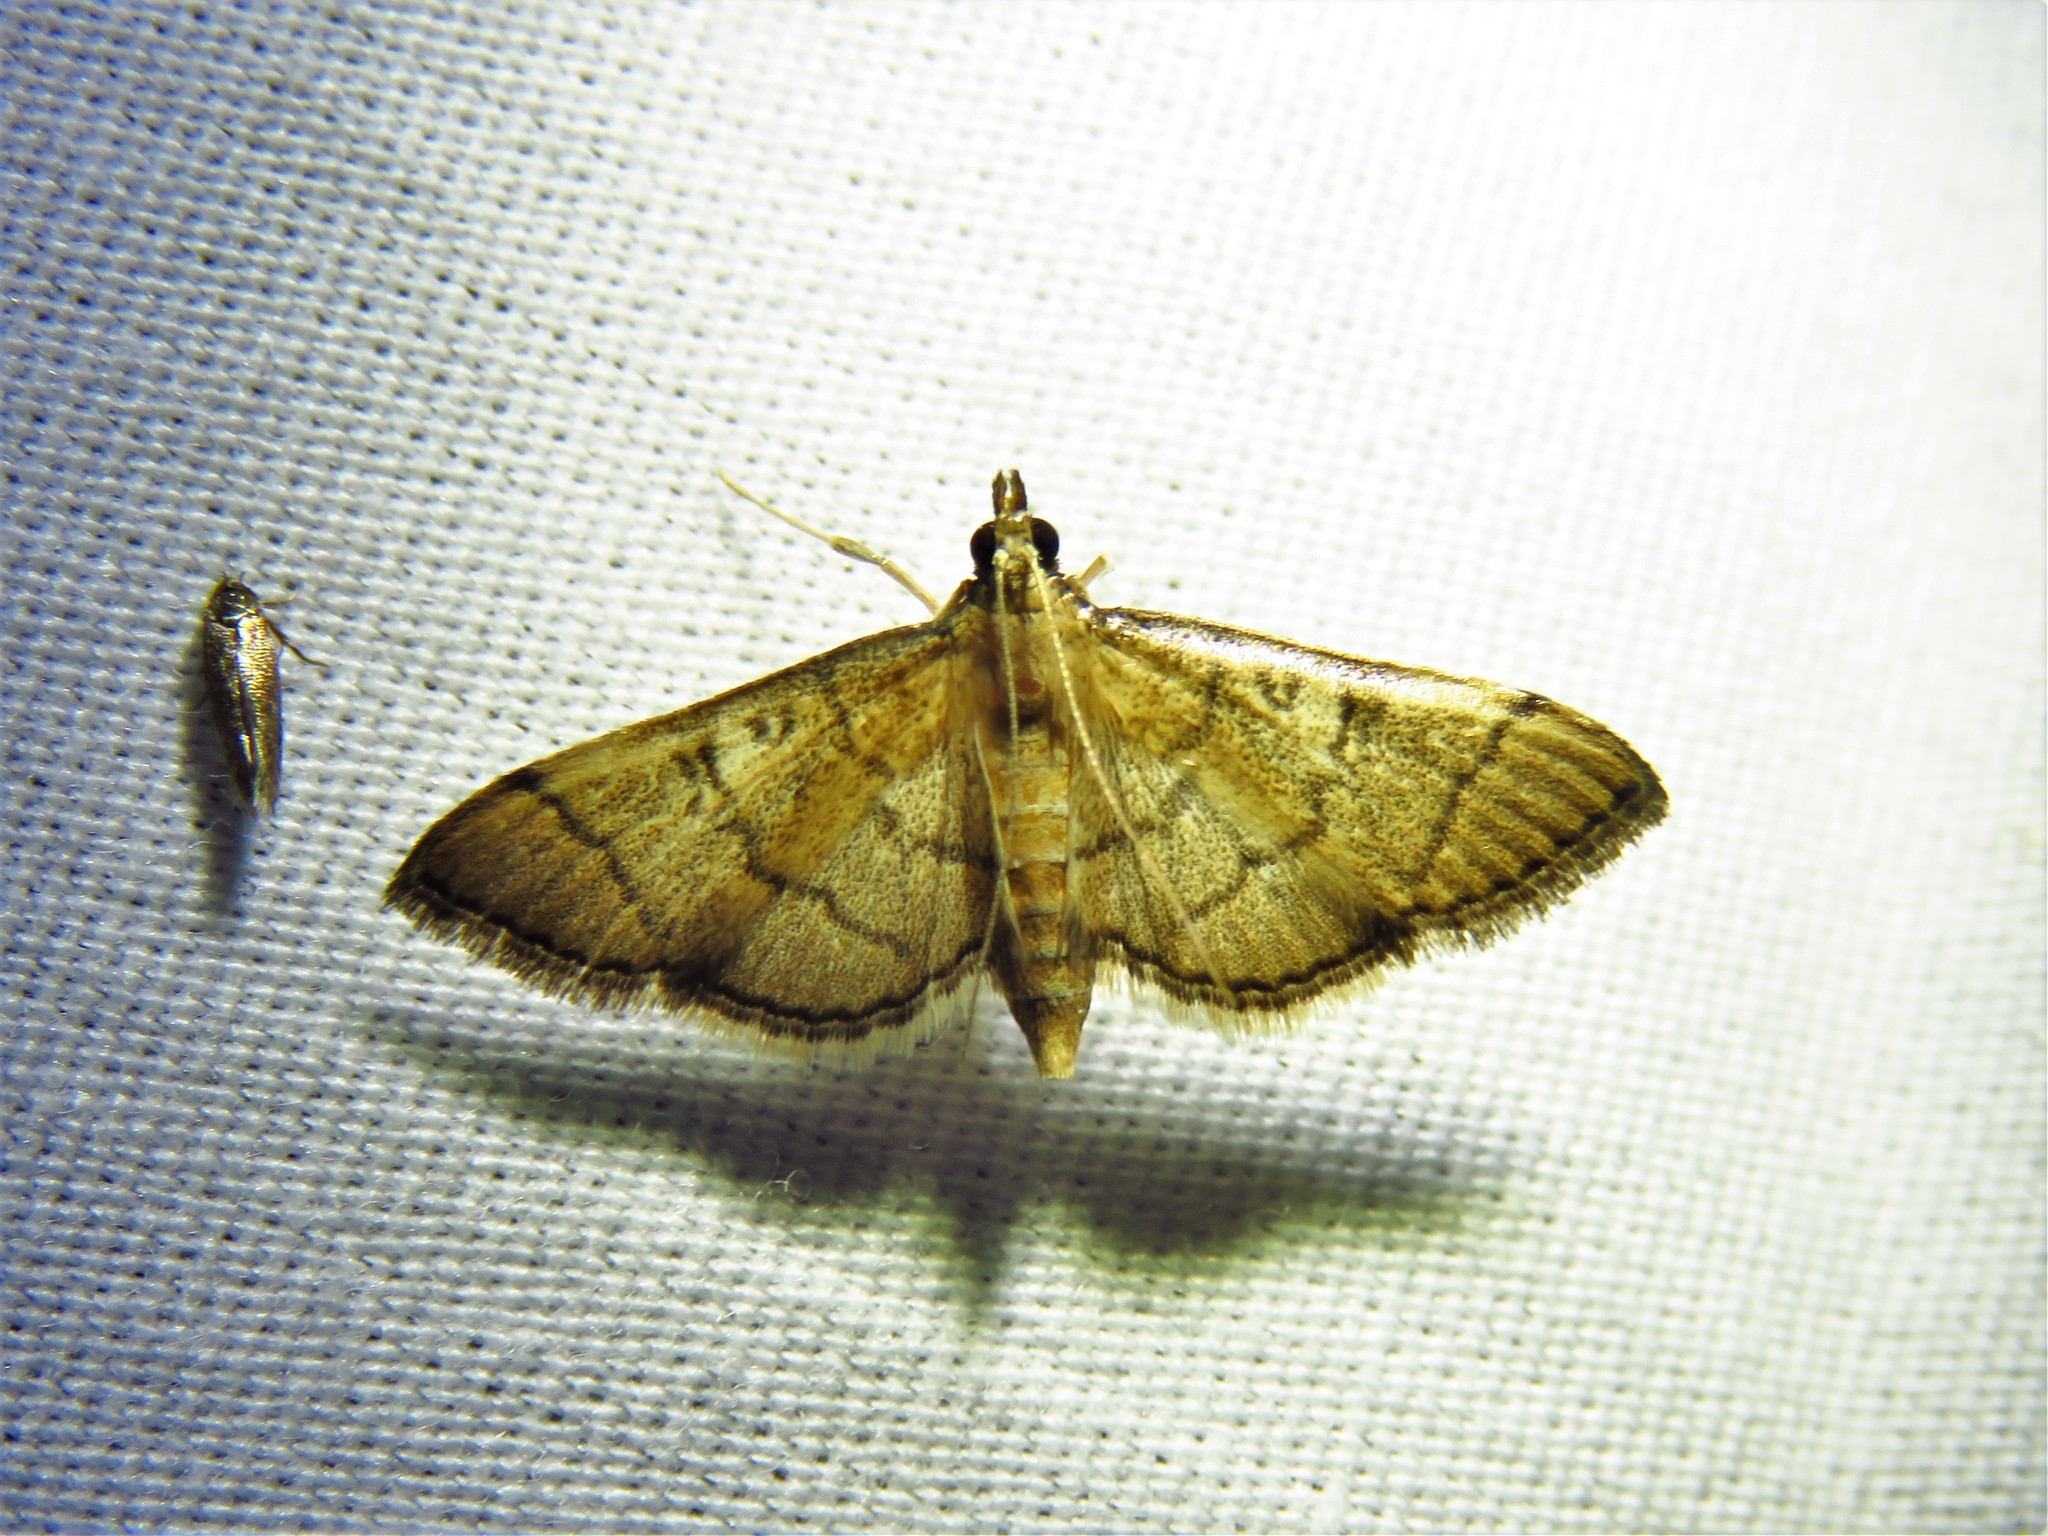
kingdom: Animalia
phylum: Arthropoda
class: Insecta
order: Lepidoptera
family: Crambidae
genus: Lamprosema
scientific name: Lamprosema Blepharomastix ranalis
